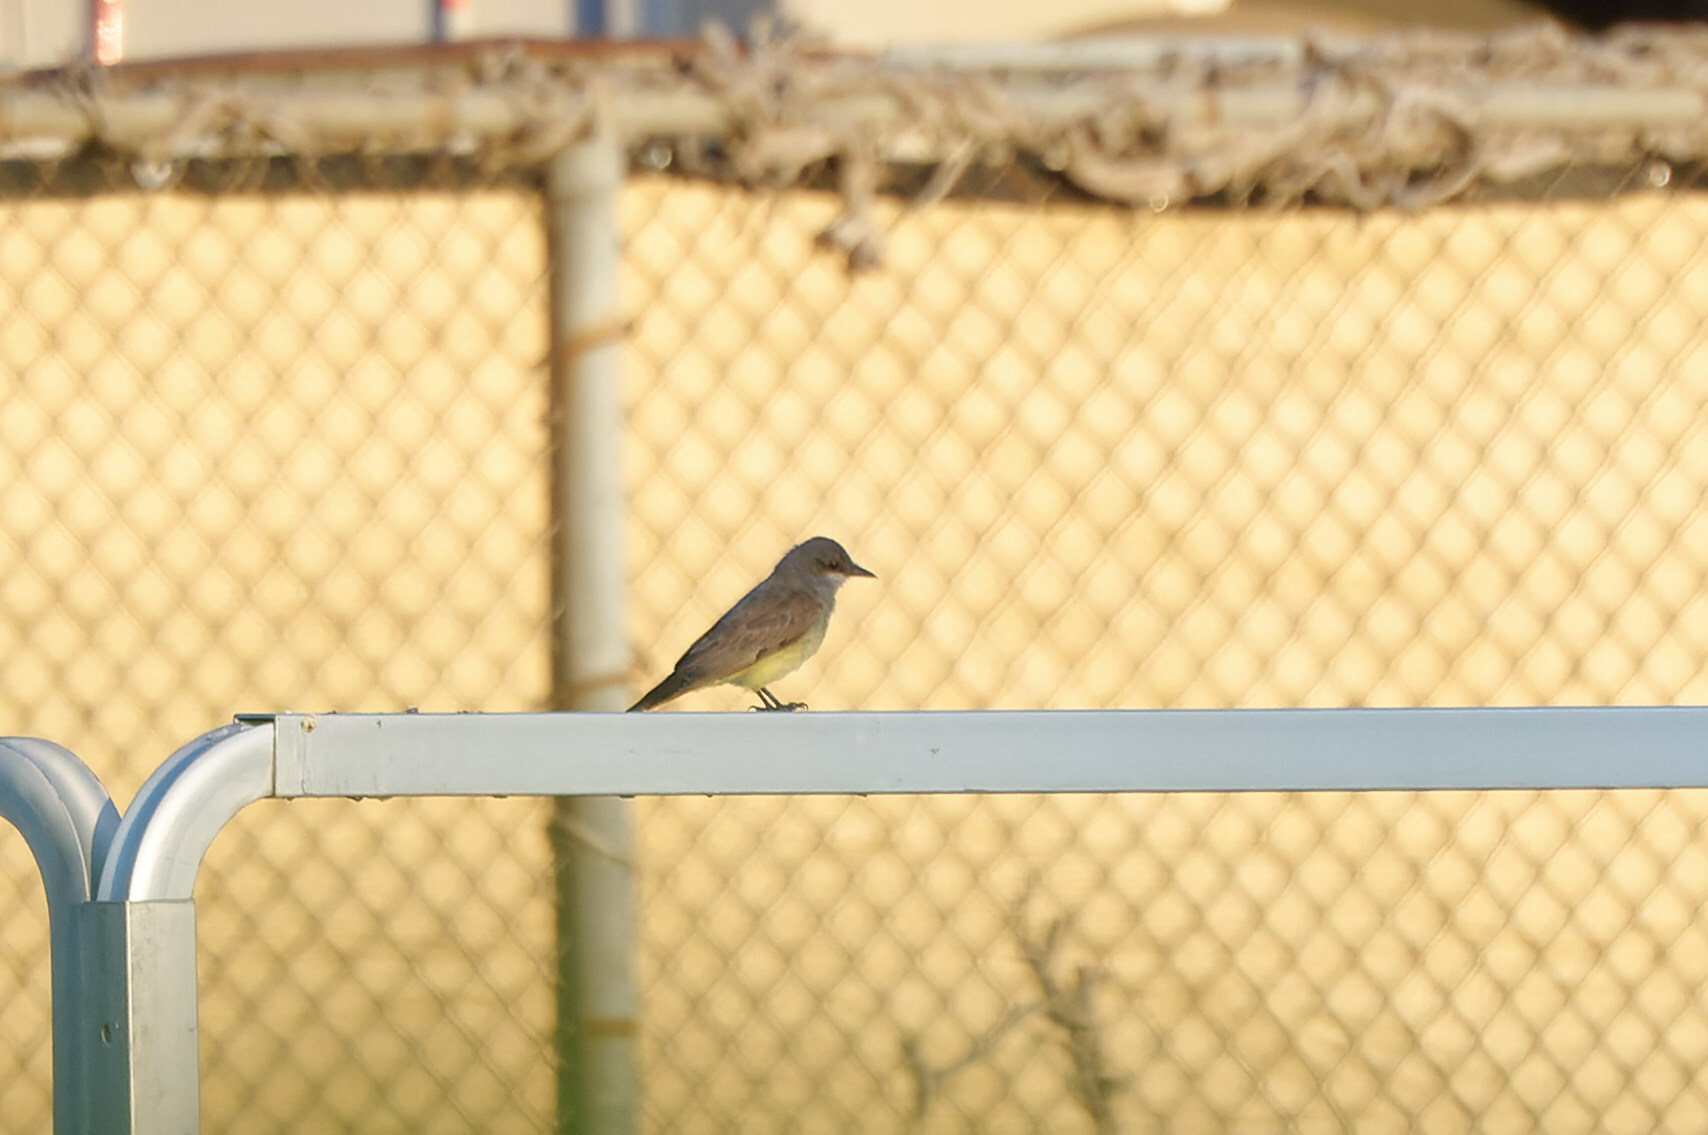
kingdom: Animalia
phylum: Chordata
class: Aves
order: Passeriformes
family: Tyrannidae
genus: Tyrannus
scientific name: Tyrannus vociferans
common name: Cassin's kingbird
